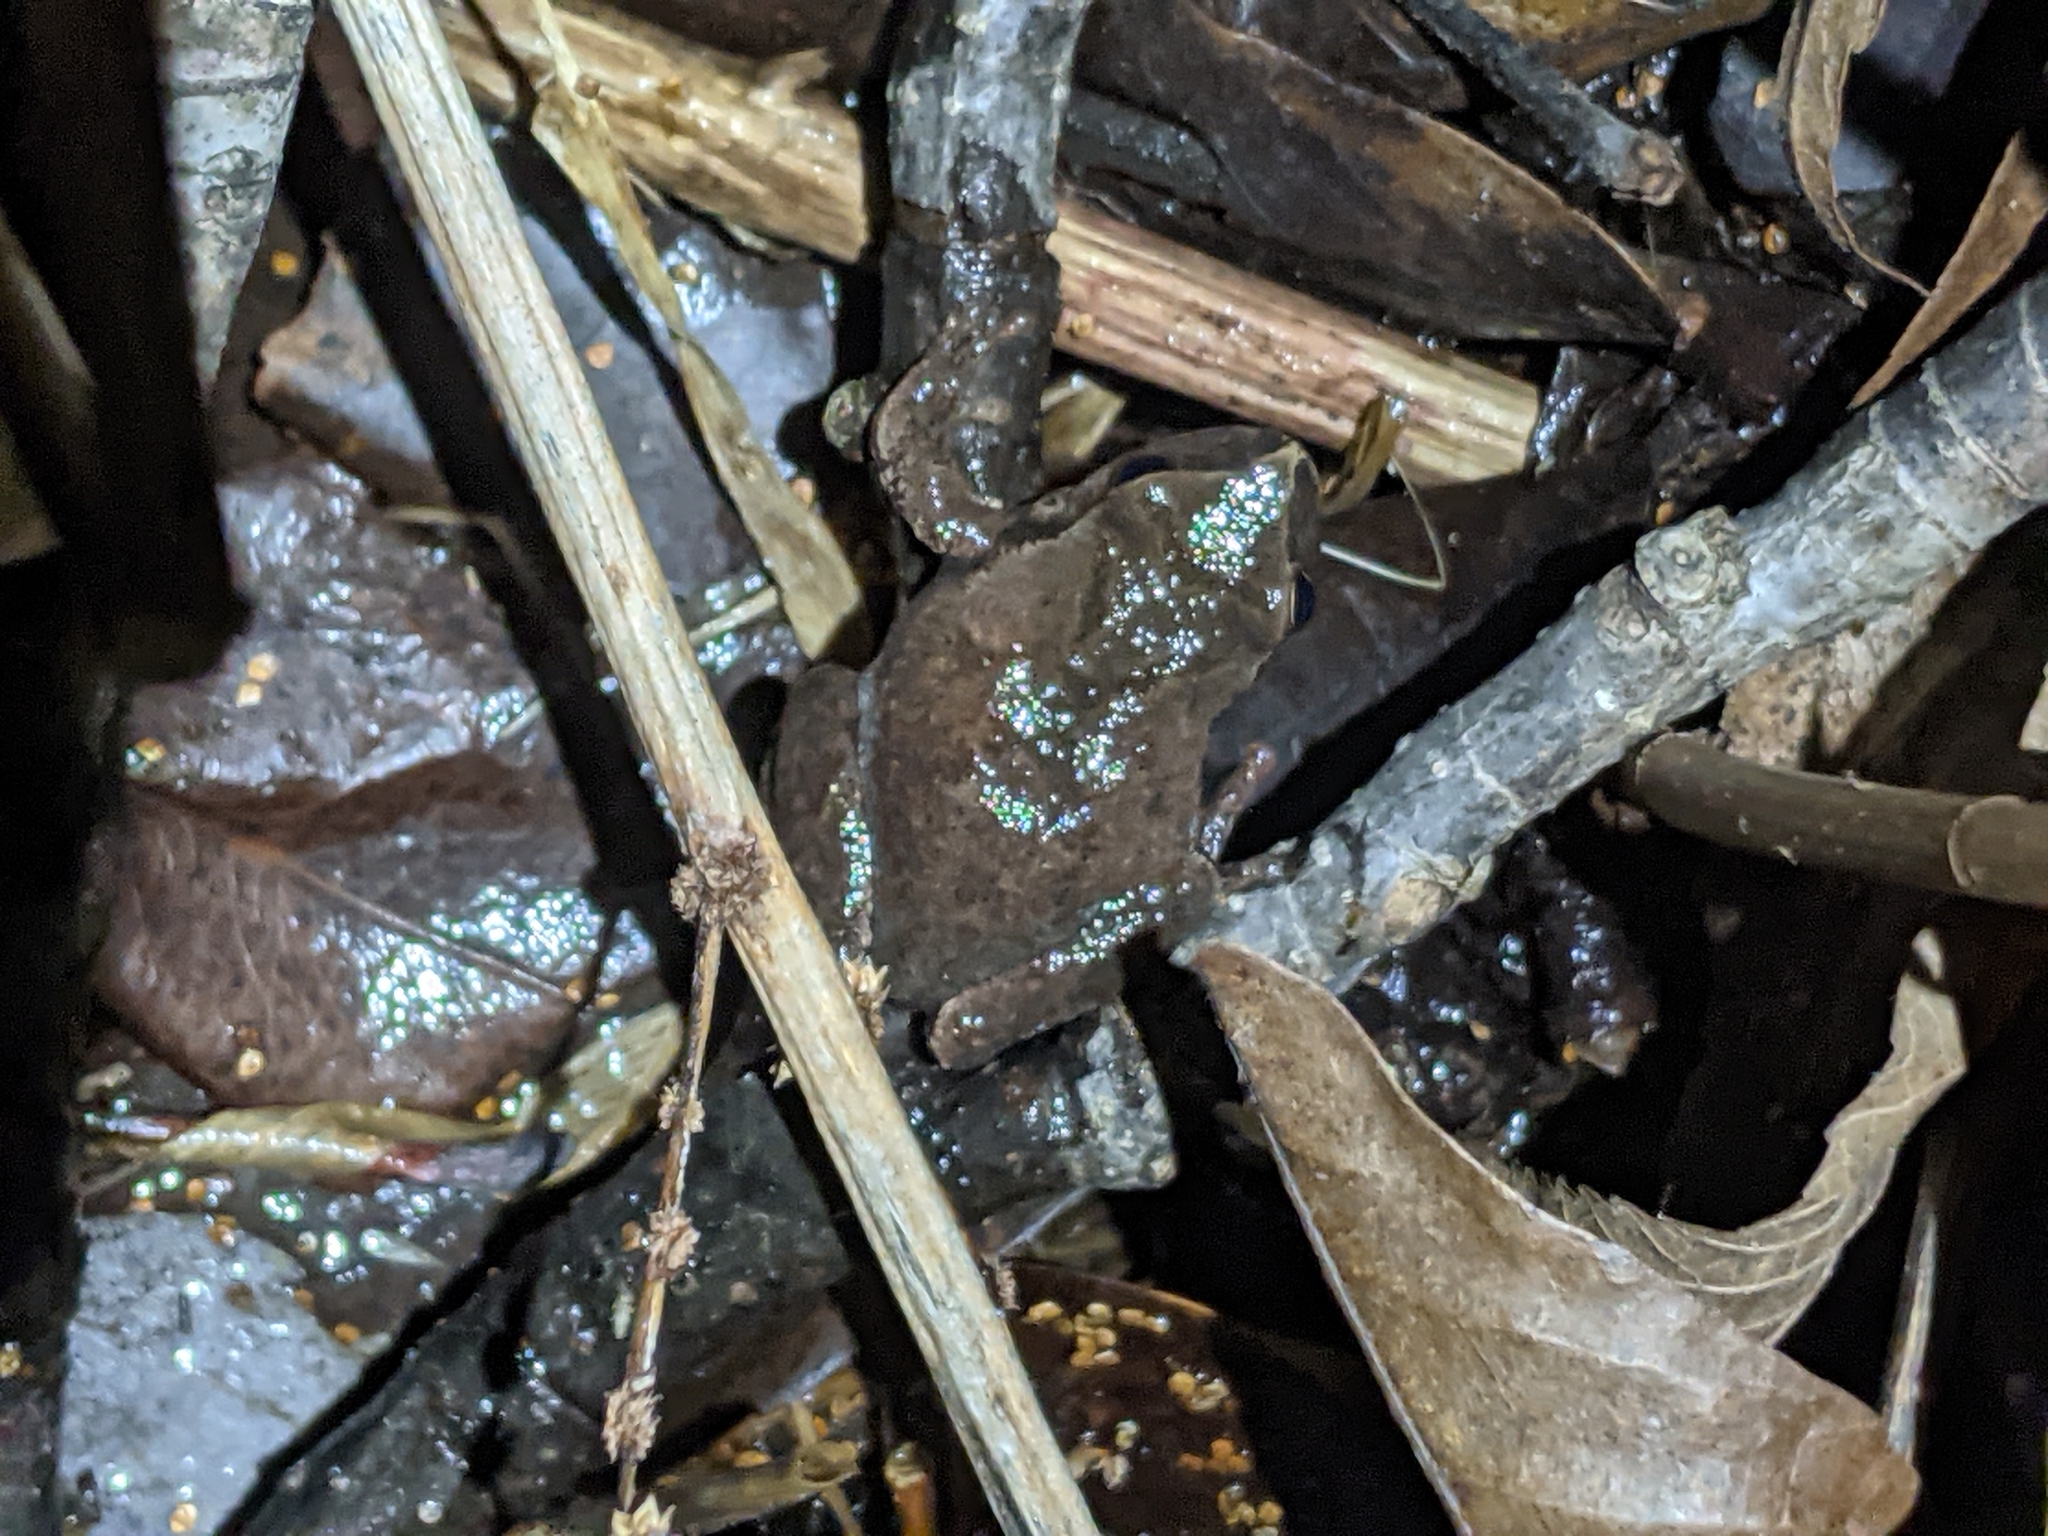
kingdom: Animalia
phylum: Chordata
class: Amphibia
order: Anura
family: Hylidae
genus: Pseudacris
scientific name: Pseudacris crucifer
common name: Spring peeper
